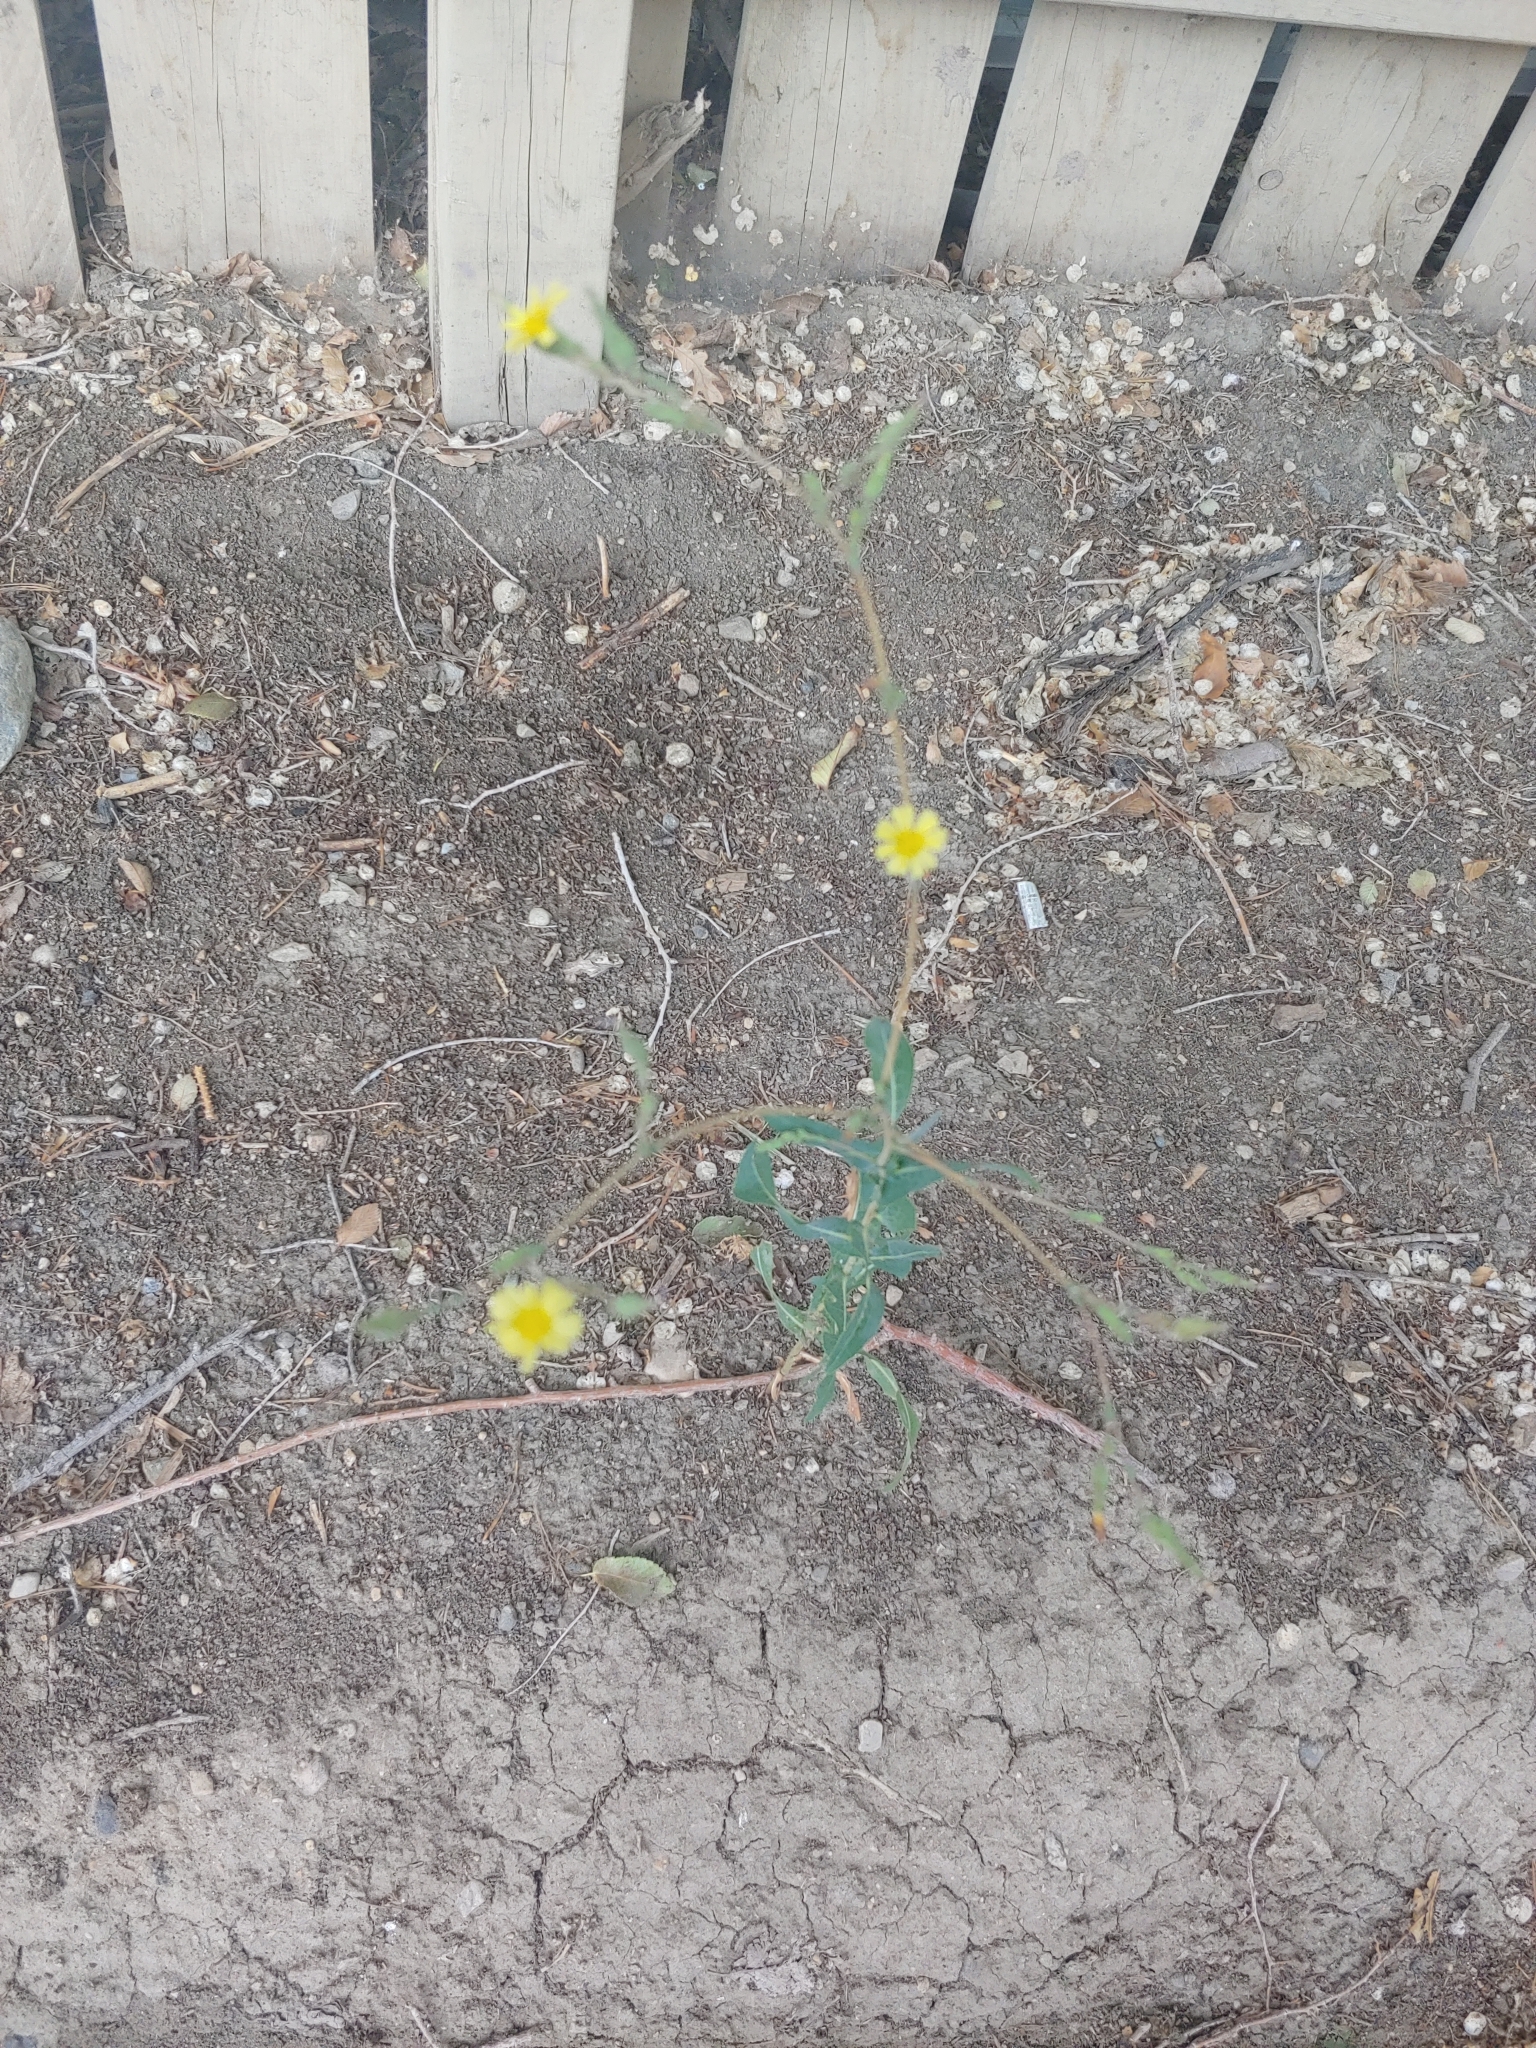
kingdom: Plantae
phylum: Tracheophyta
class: Magnoliopsida
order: Asterales
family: Asteraceae
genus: Lactuca
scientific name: Lactuca serriola
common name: Prickly lettuce
